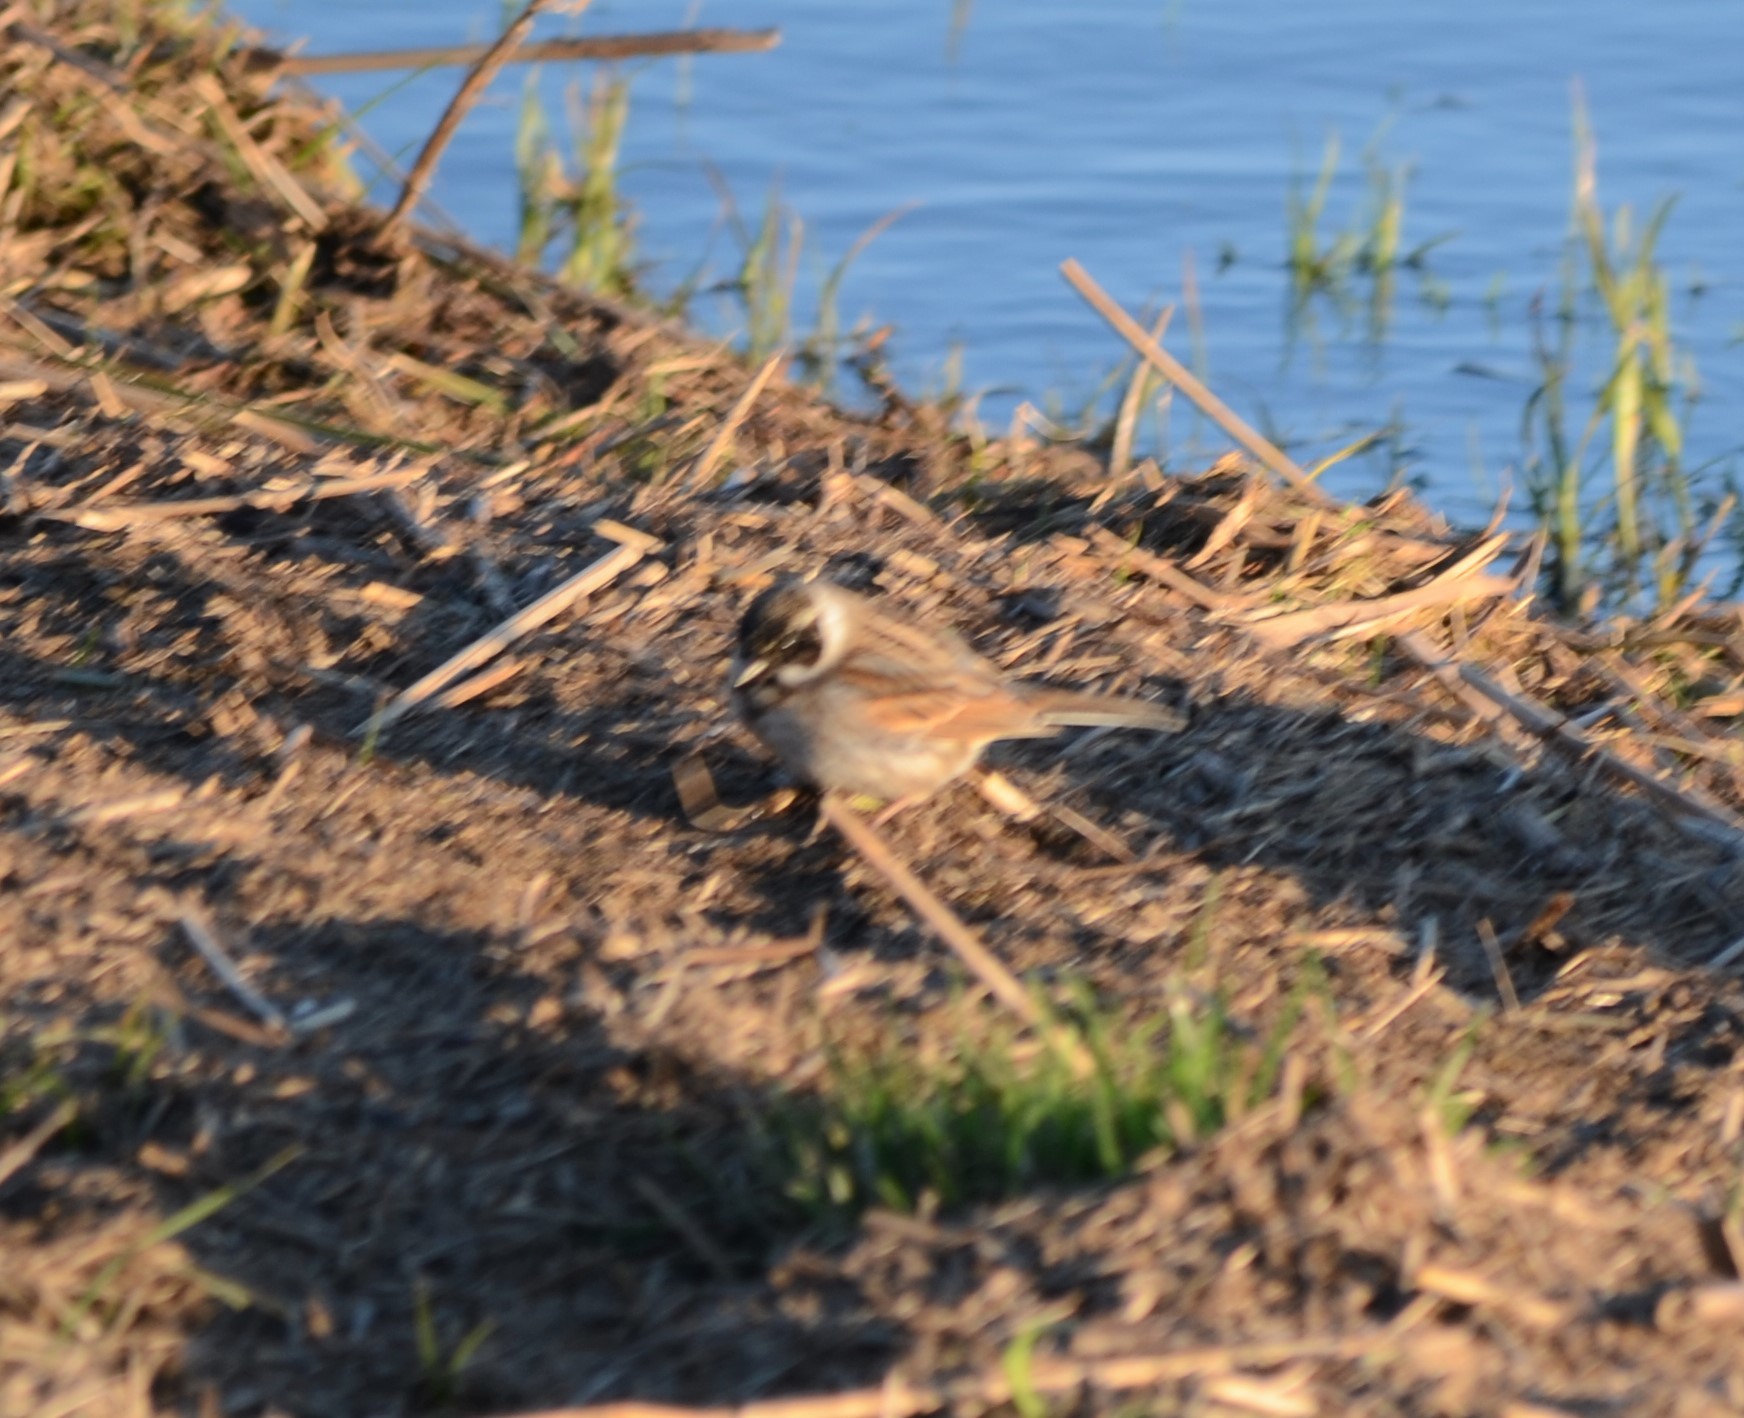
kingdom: Animalia
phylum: Chordata
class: Aves
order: Passeriformes
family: Emberizidae
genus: Emberiza
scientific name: Emberiza schoeniclus
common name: Reed bunting
